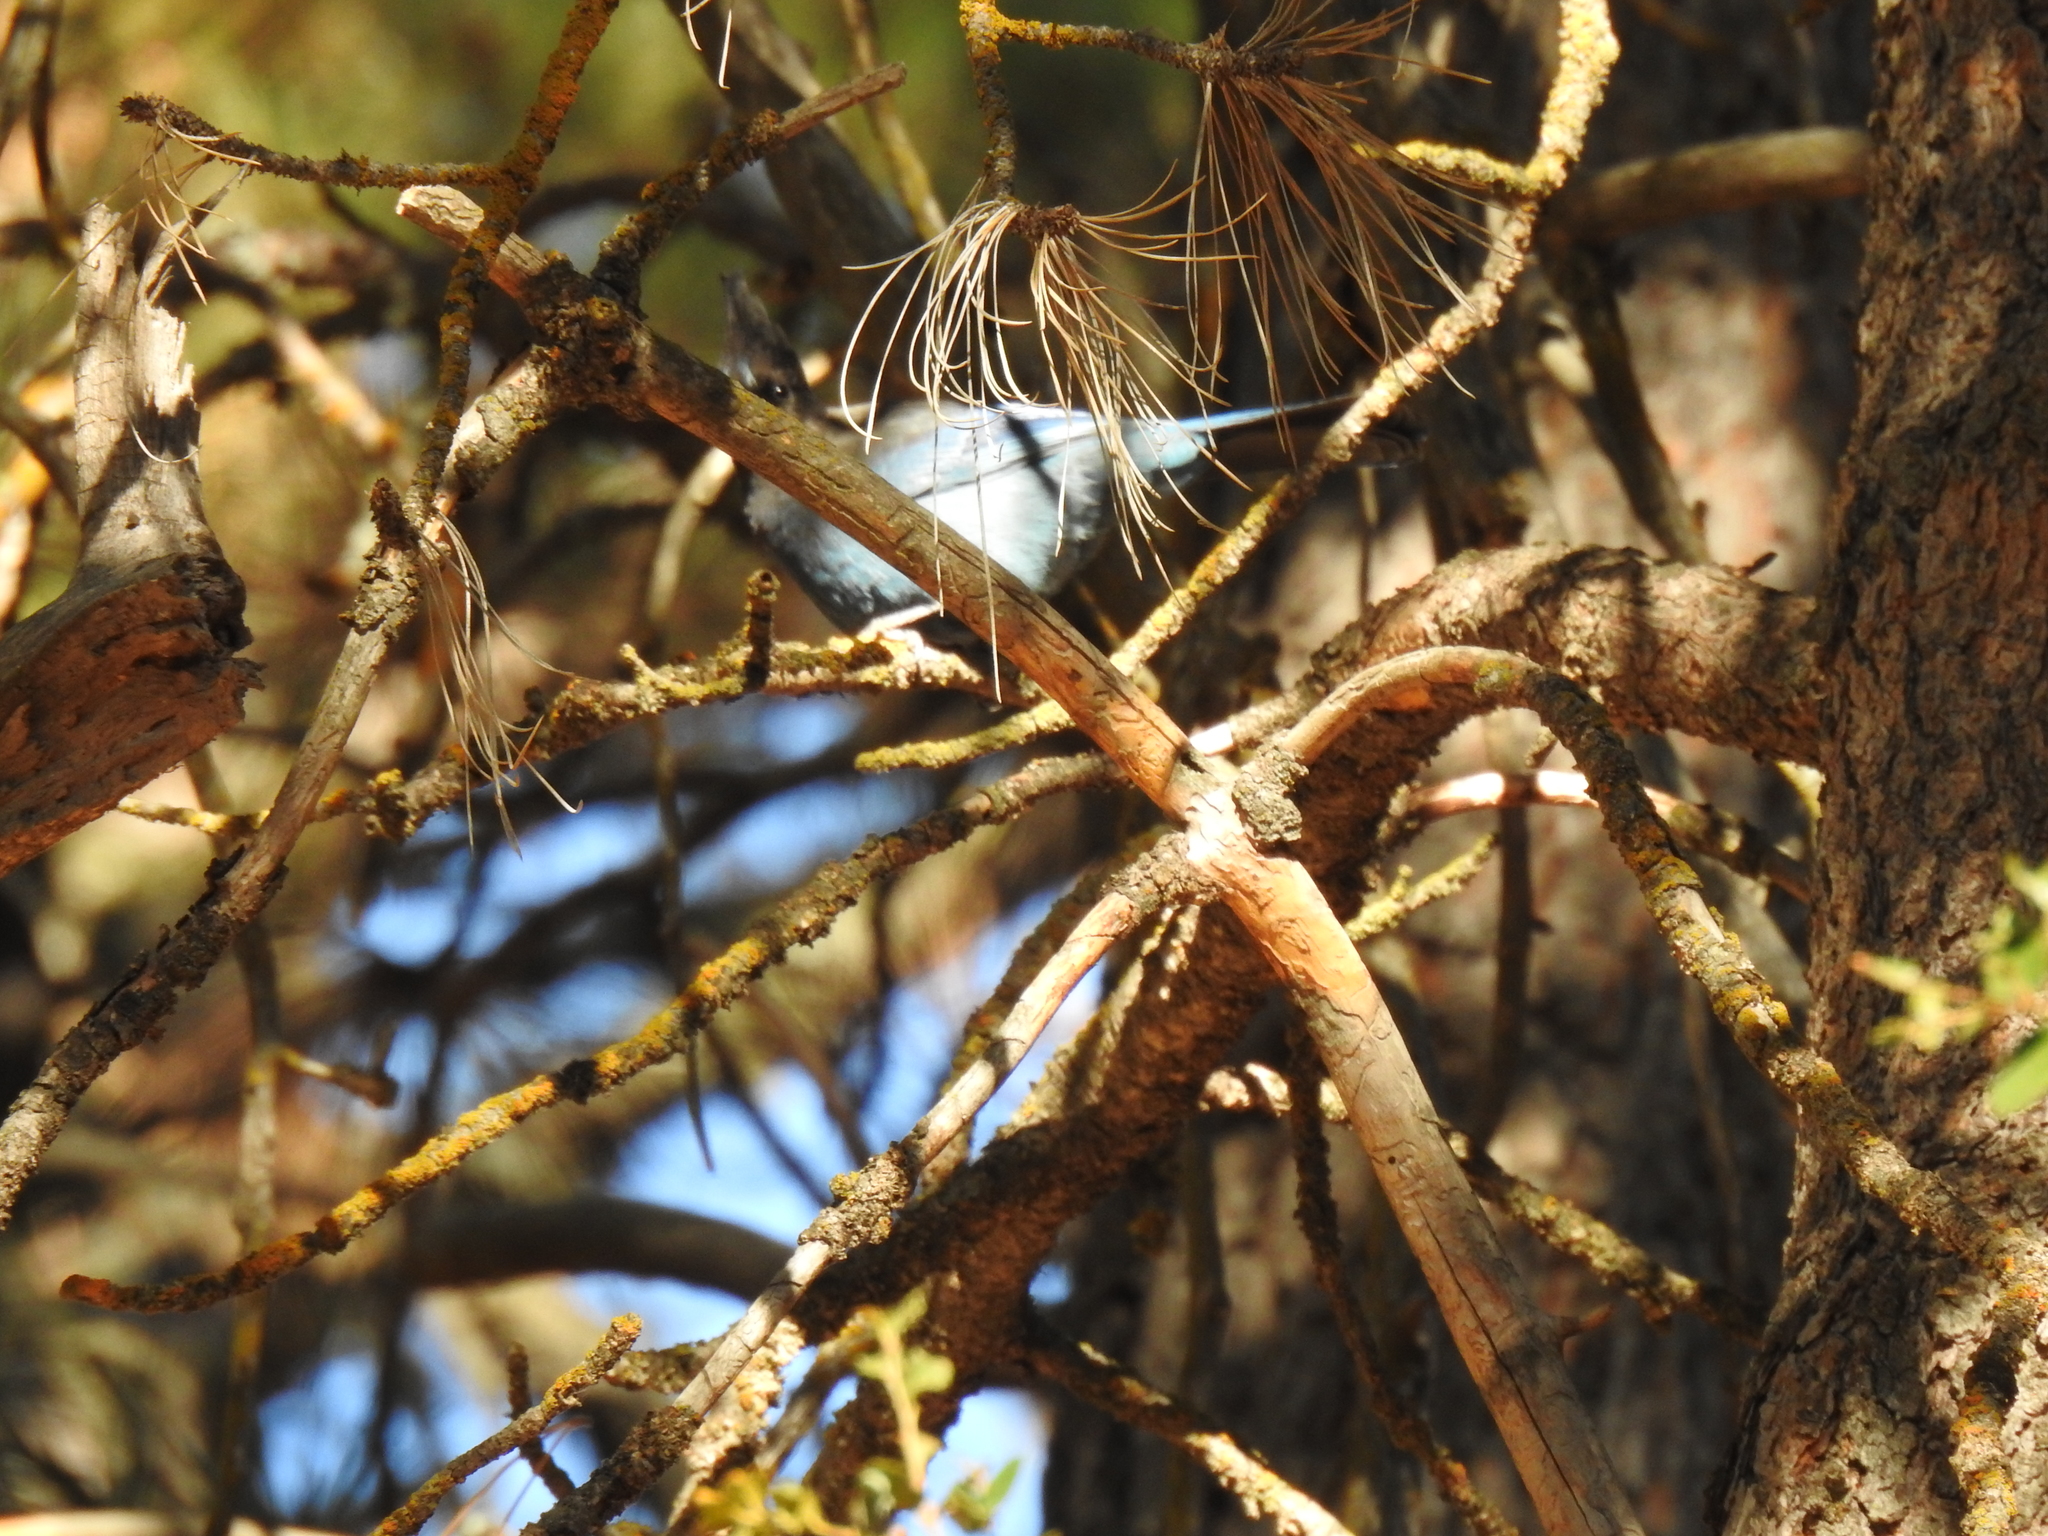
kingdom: Animalia
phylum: Chordata
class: Aves
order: Passeriformes
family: Corvidae
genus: Cyanocitta
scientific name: Cyanocitta stelleri
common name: Steller's jay
